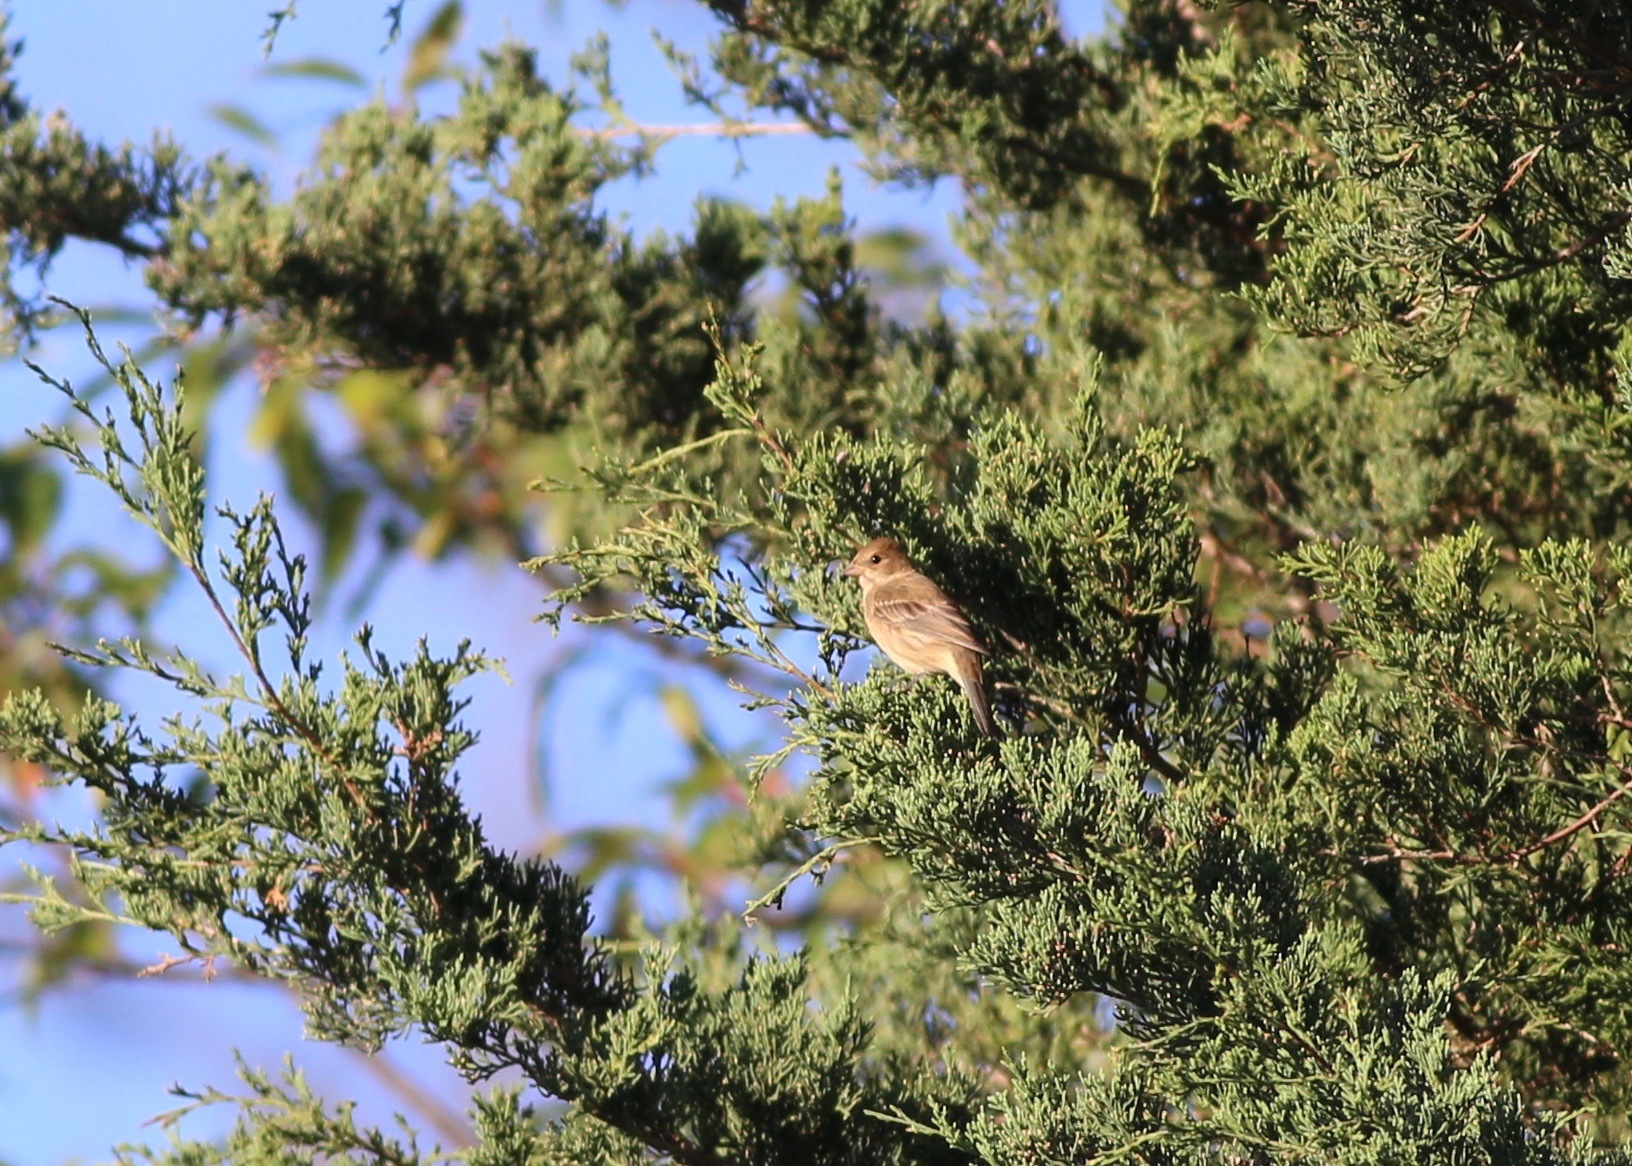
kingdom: Animalia
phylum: Chordata
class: Aves
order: Passeriformes
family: Cardinalidae
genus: Passerina
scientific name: Passerina cyanea
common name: Indigo bunting
